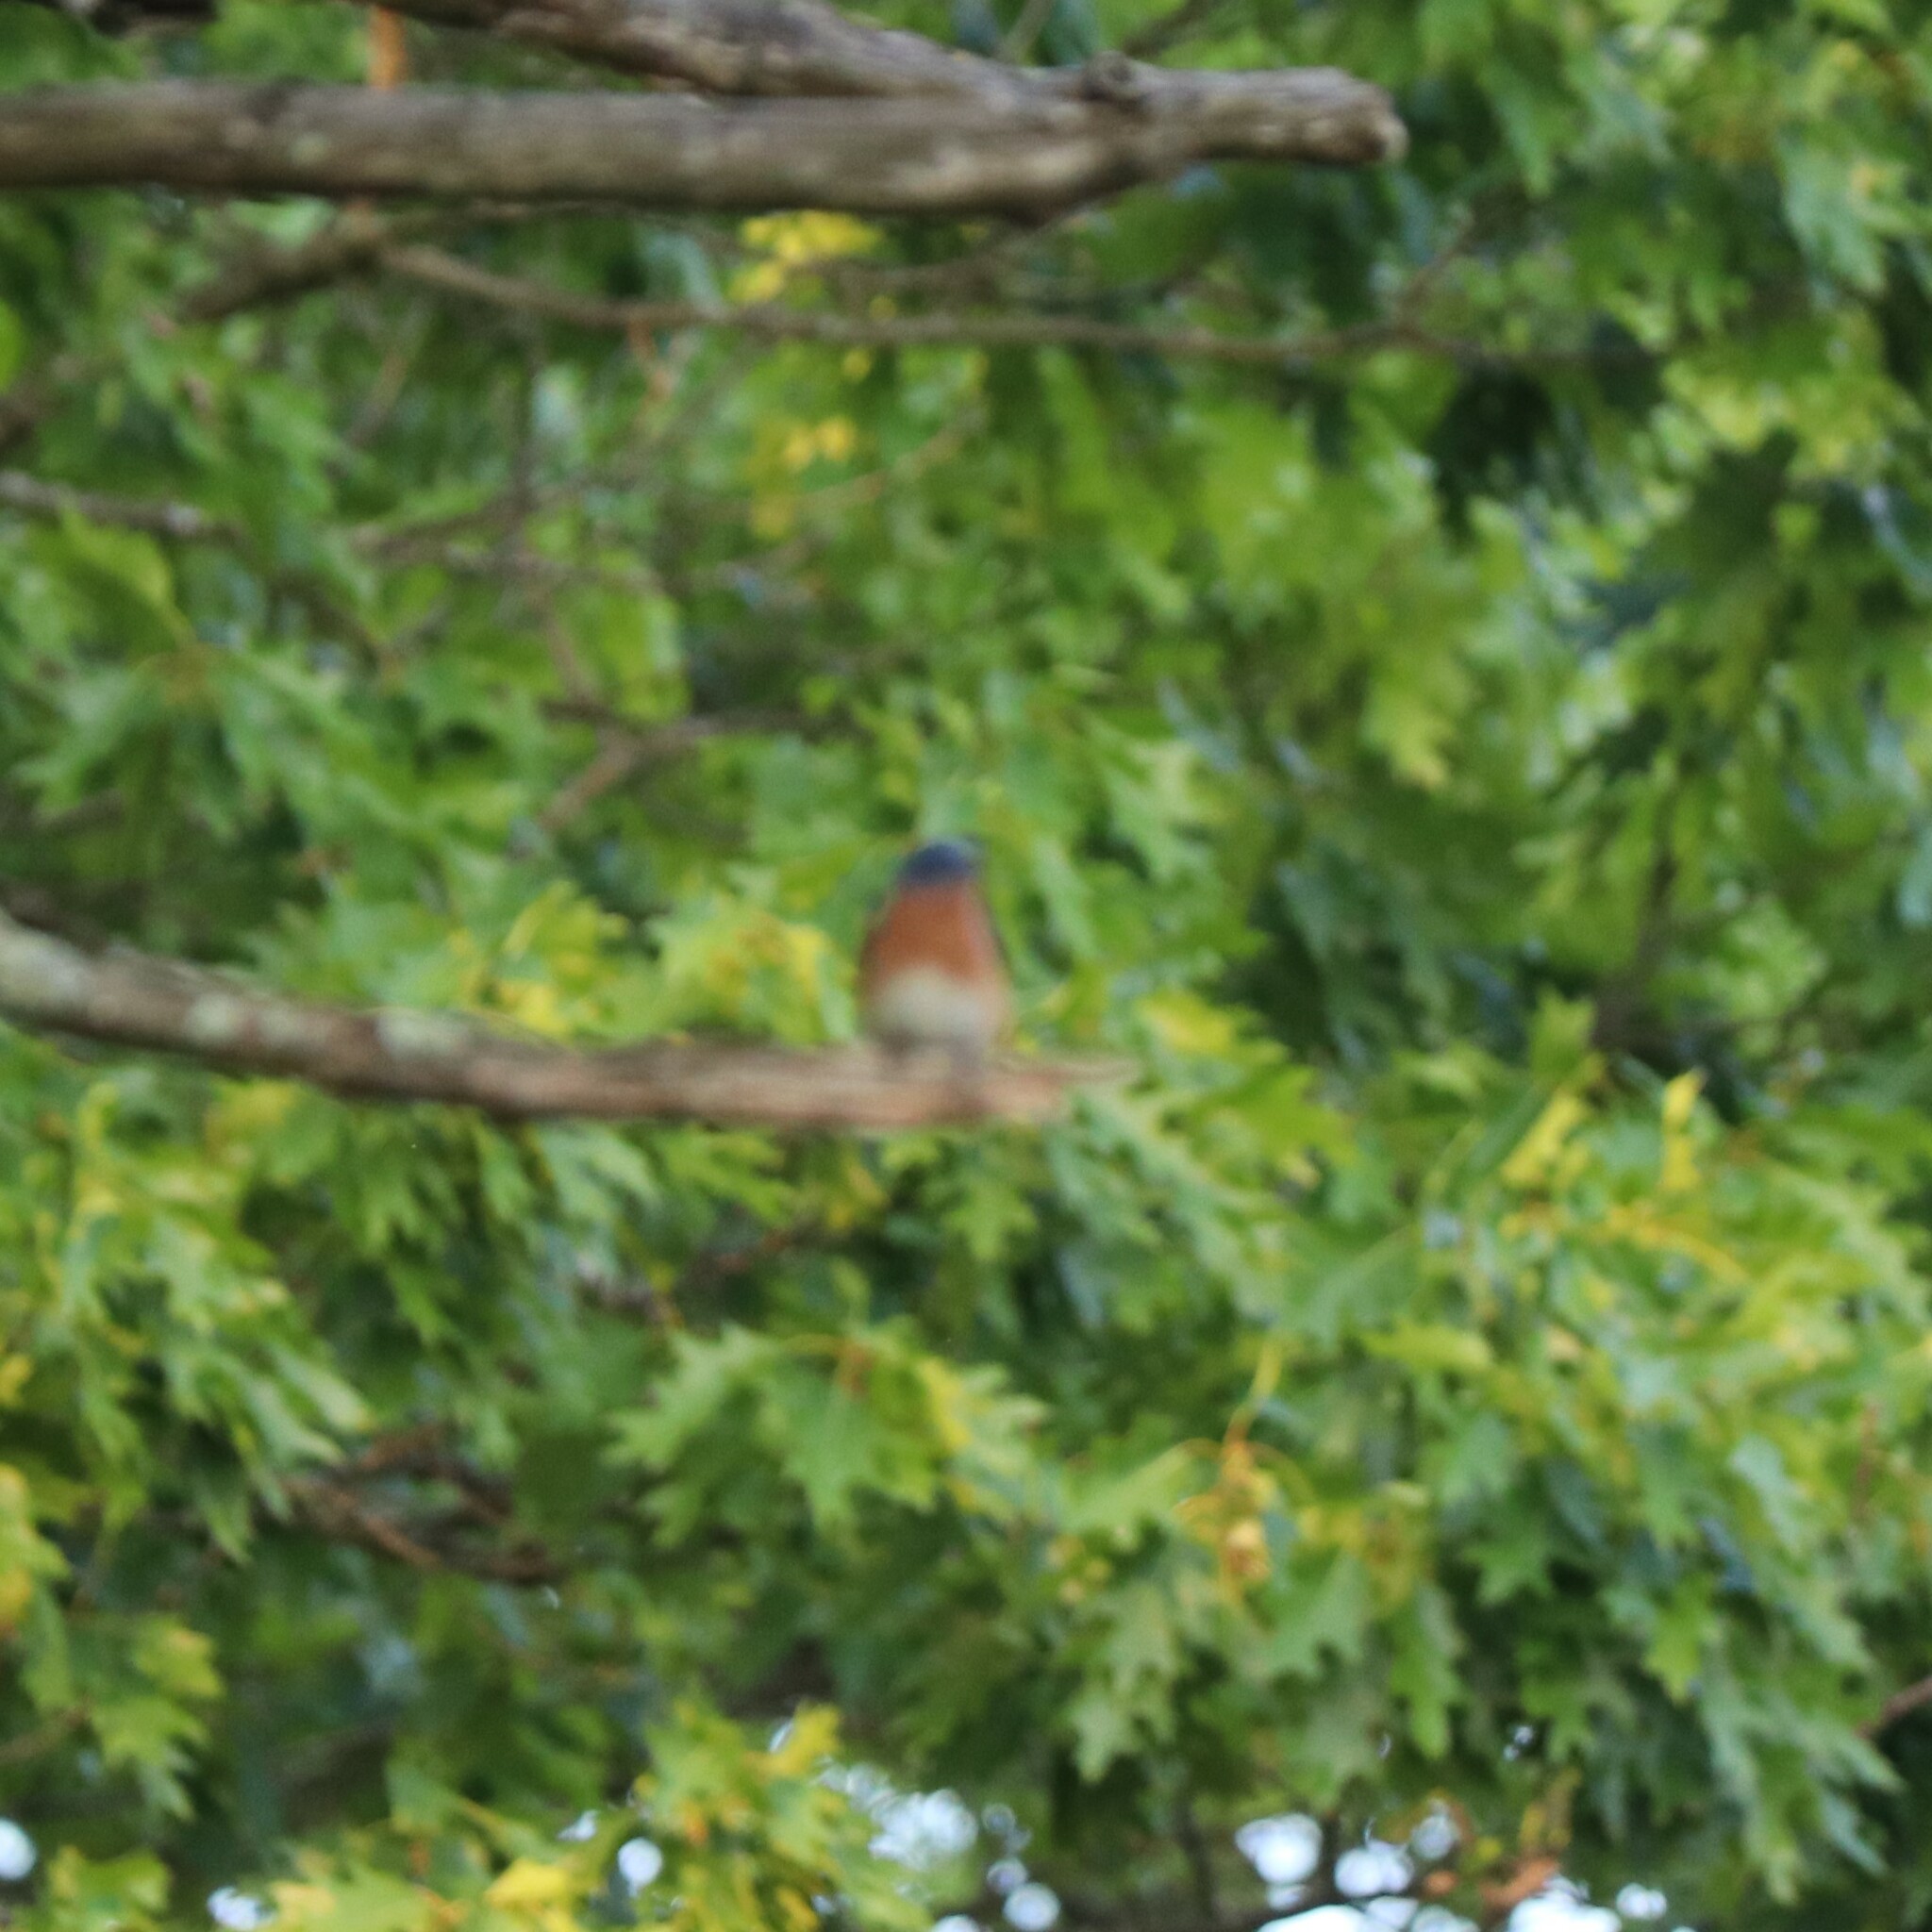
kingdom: Animalia
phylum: Chordata
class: Aves
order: Passeriformes
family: Turdidae
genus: Sialia
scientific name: Sialia sialis
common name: Eastern bluebird
